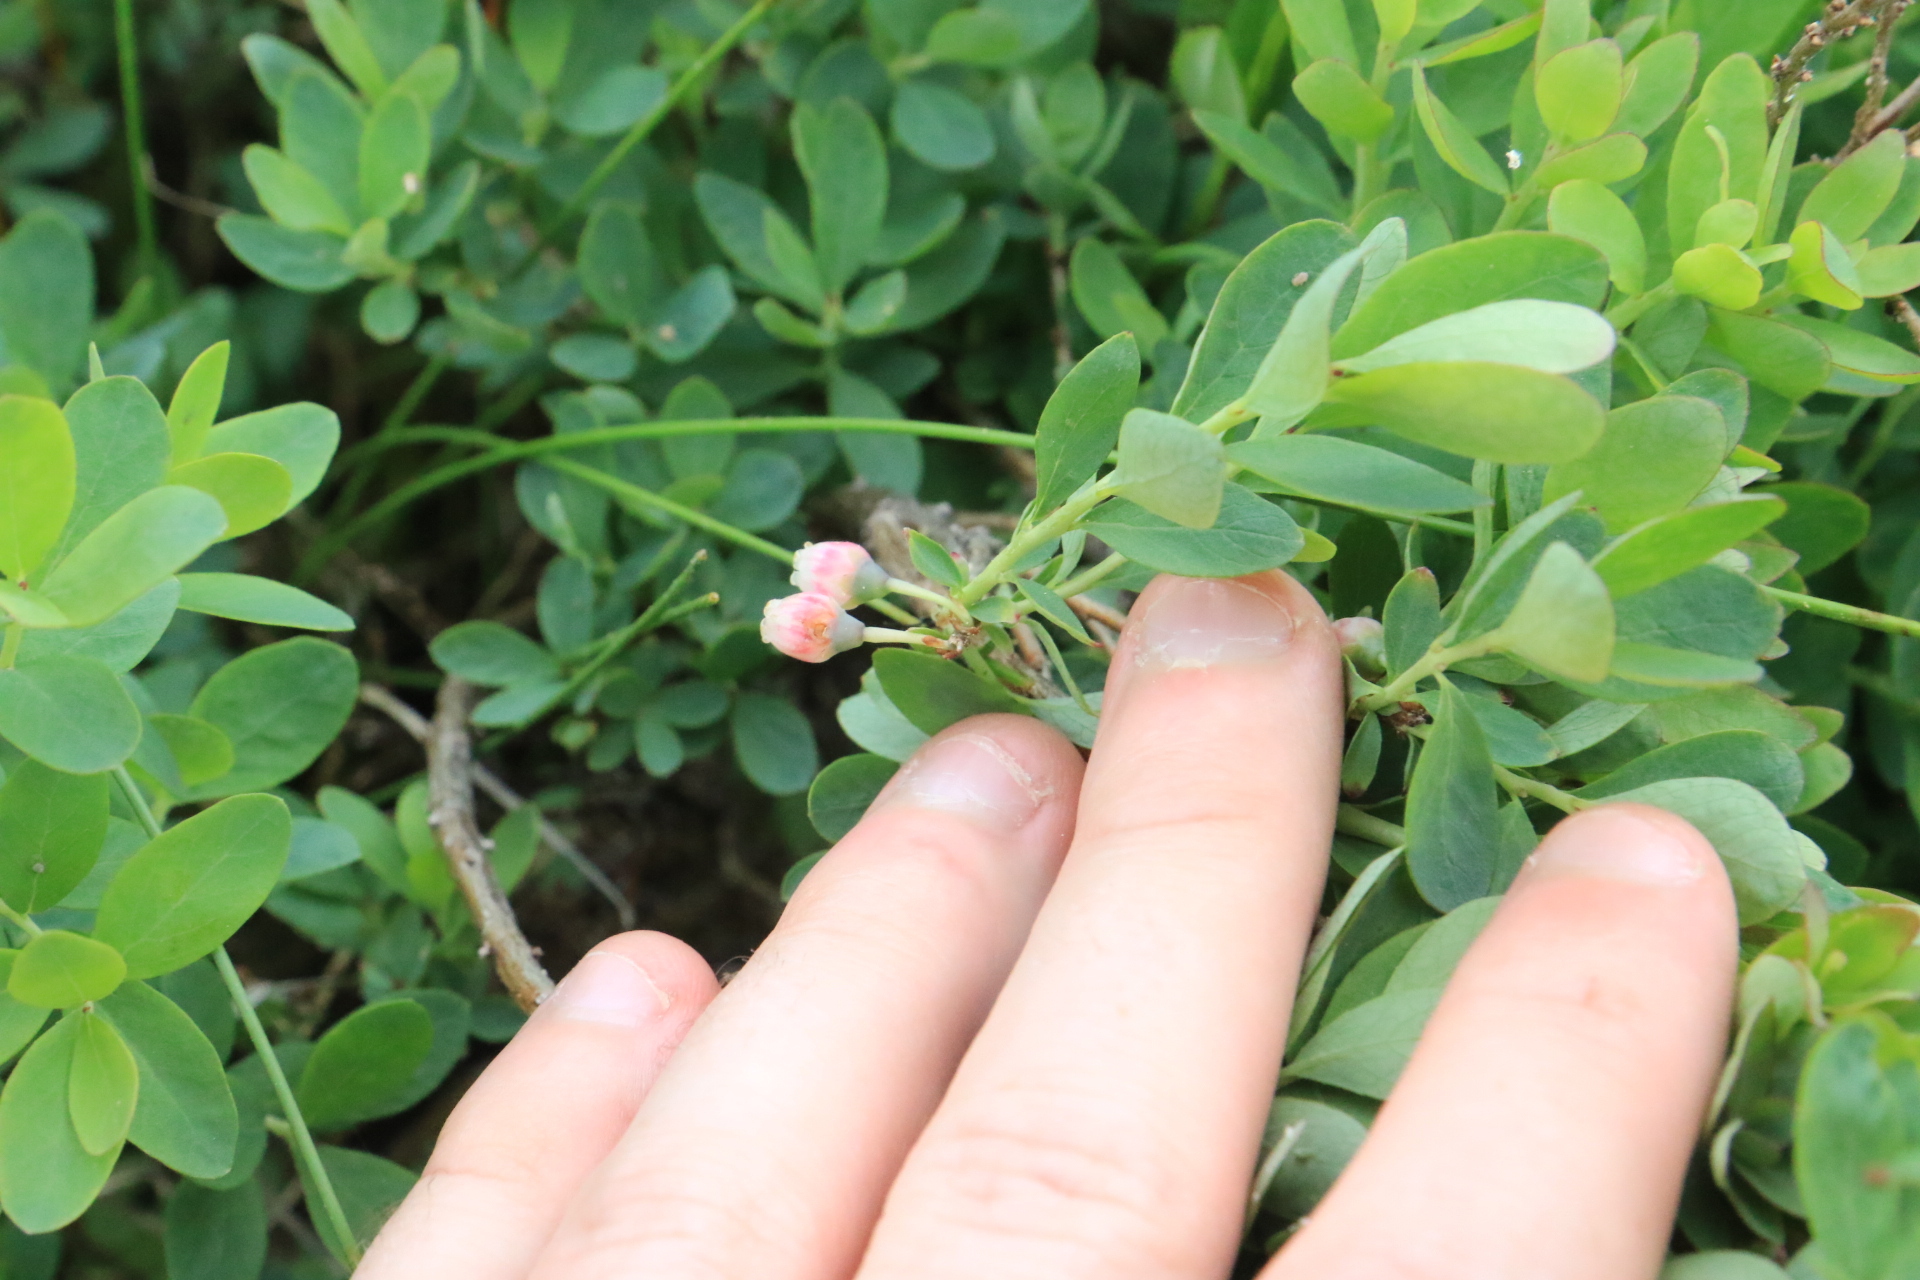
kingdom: Plantae
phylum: Tracheophyta
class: Magnoliopsida
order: Ericales
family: Ericaceae
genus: Vaccinium
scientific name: Vaccinium uliginosum
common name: Bog bilberry
